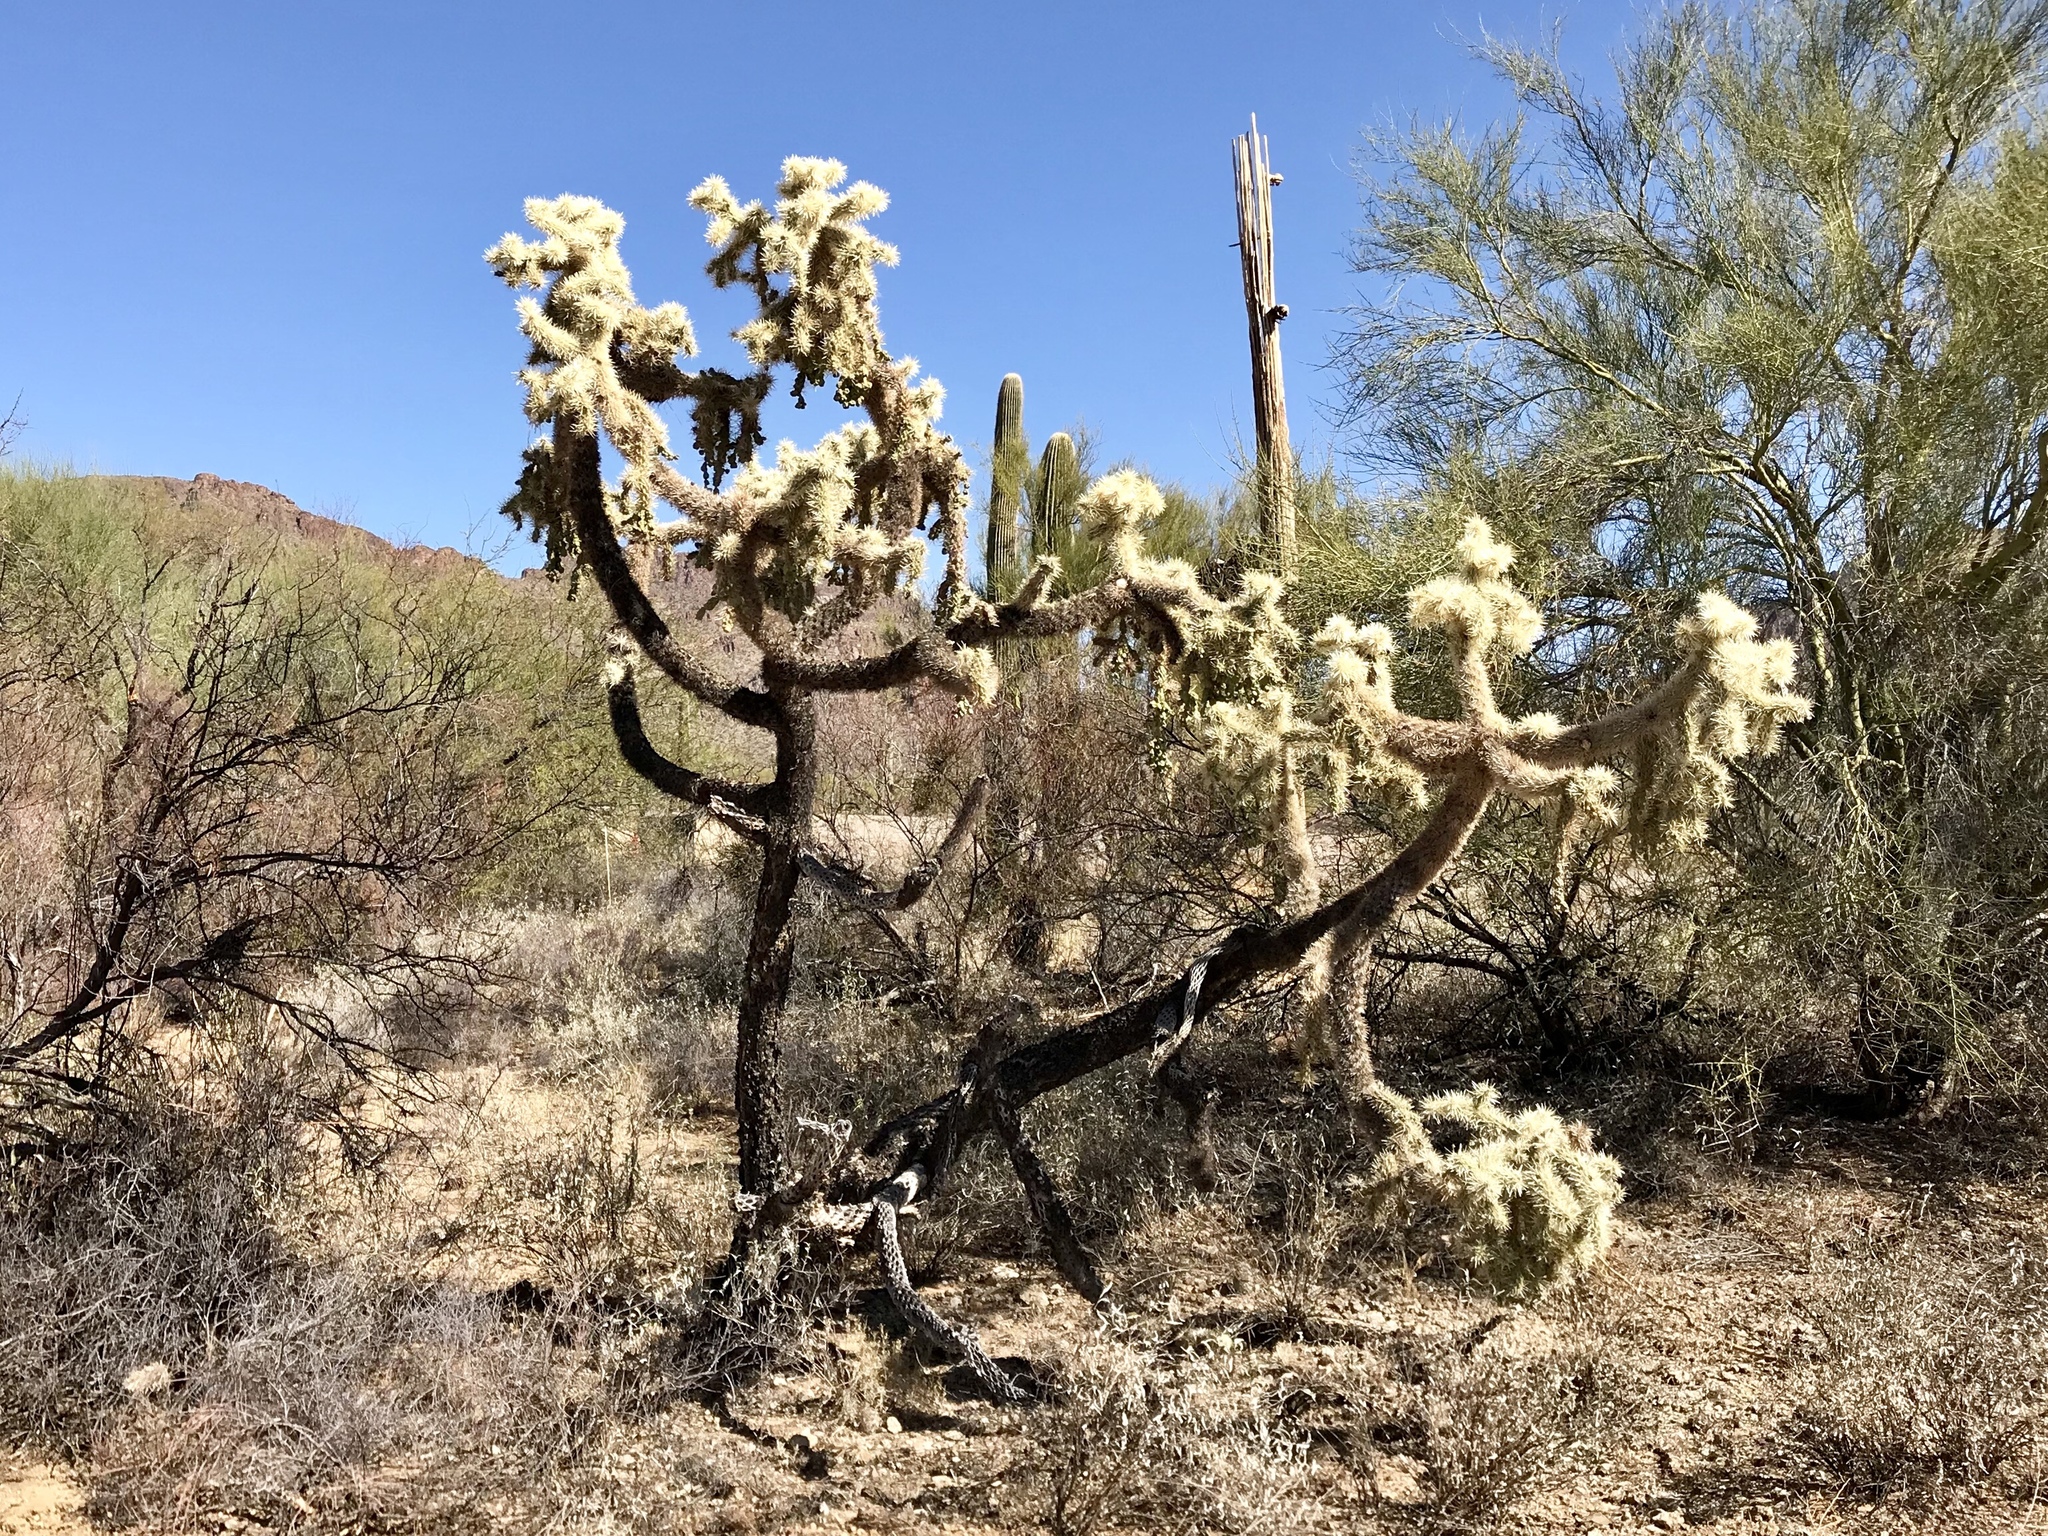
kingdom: Plantae
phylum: Tracheophyta
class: Magnoliopsida
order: Caryophyllales
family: Cactaceae
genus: Cylindropuntia
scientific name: Cylindropuntia fulgida
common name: Jumping cholla
